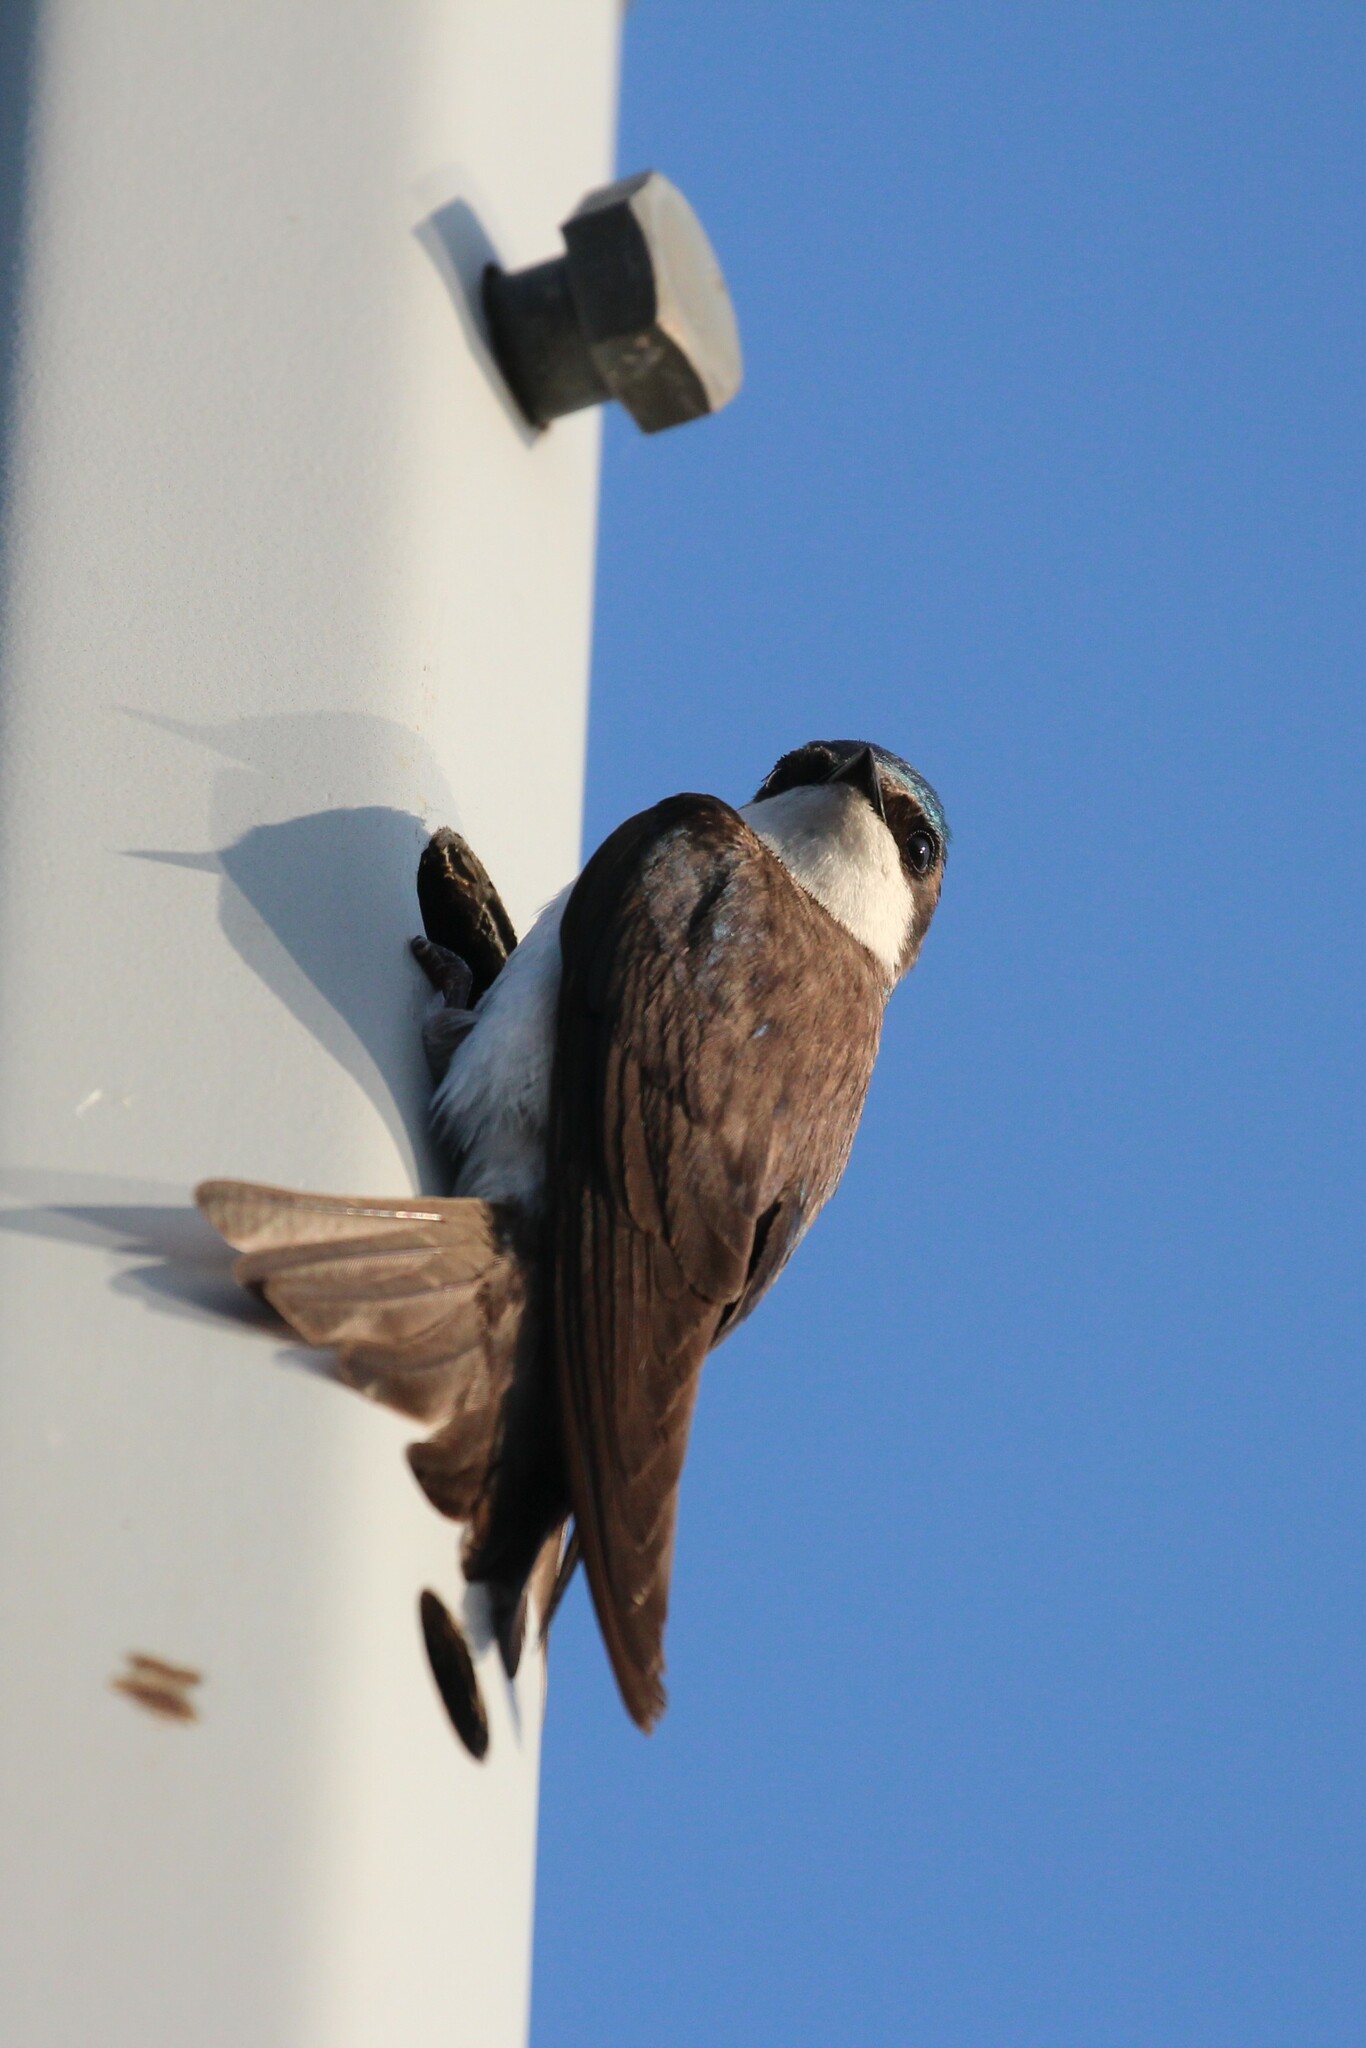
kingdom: Animalia
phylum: Chordata
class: Aves
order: Passeriformes
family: Hirundinidae
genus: Tachycineta
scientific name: Tachycineta bicolor
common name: Tree swallow
